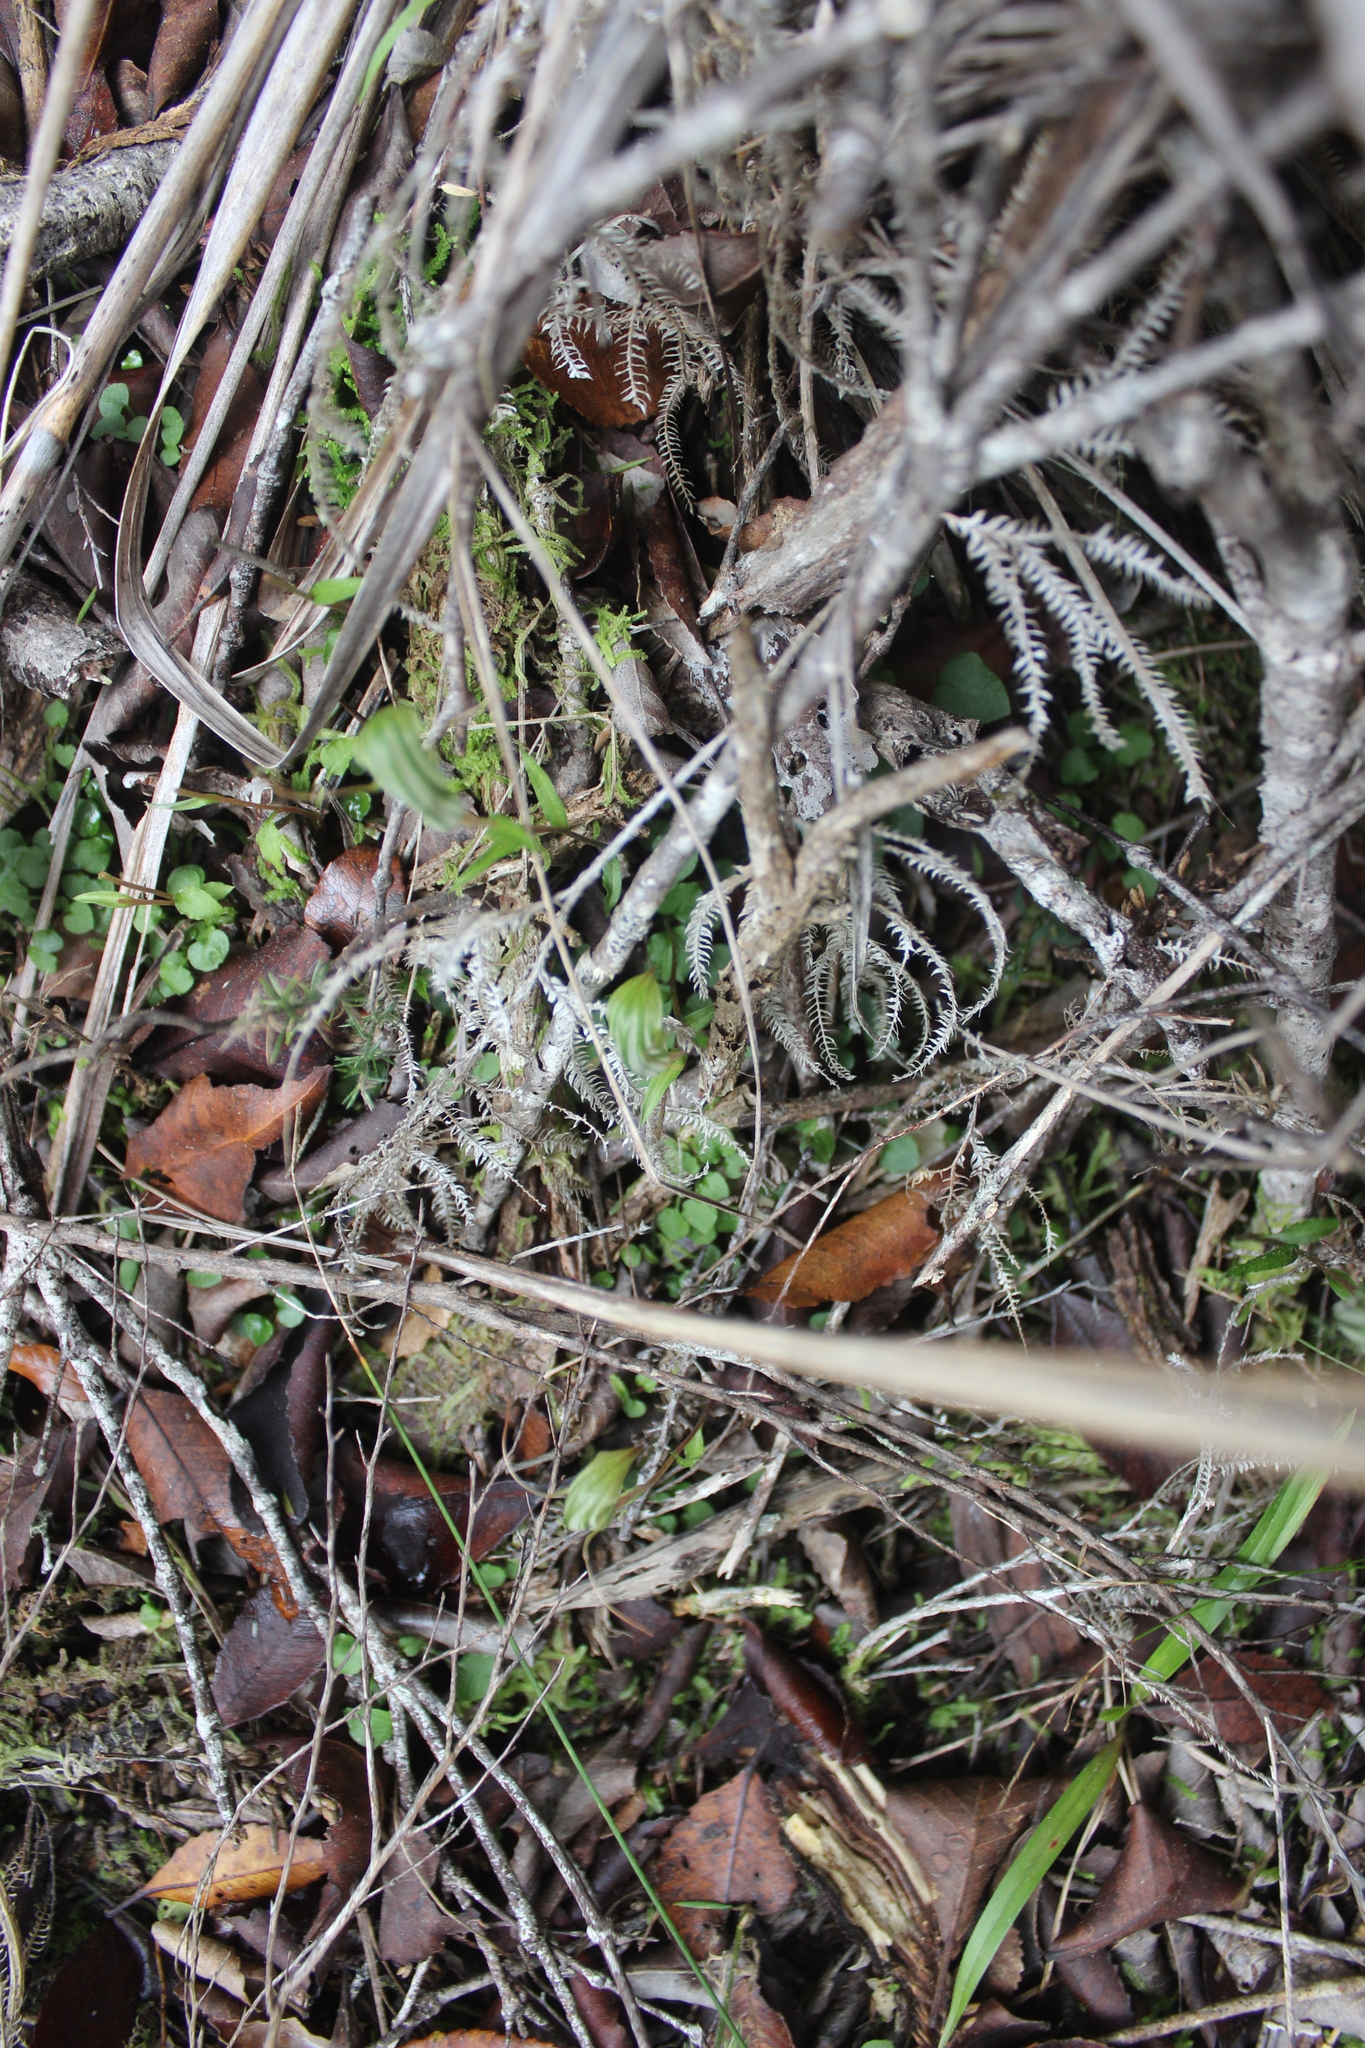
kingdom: Plantae
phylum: Tracheophyta
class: Liliopsida
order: Asparagales
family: Orchidaceae
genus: Pterostylis
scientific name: Pterostylis alobula
